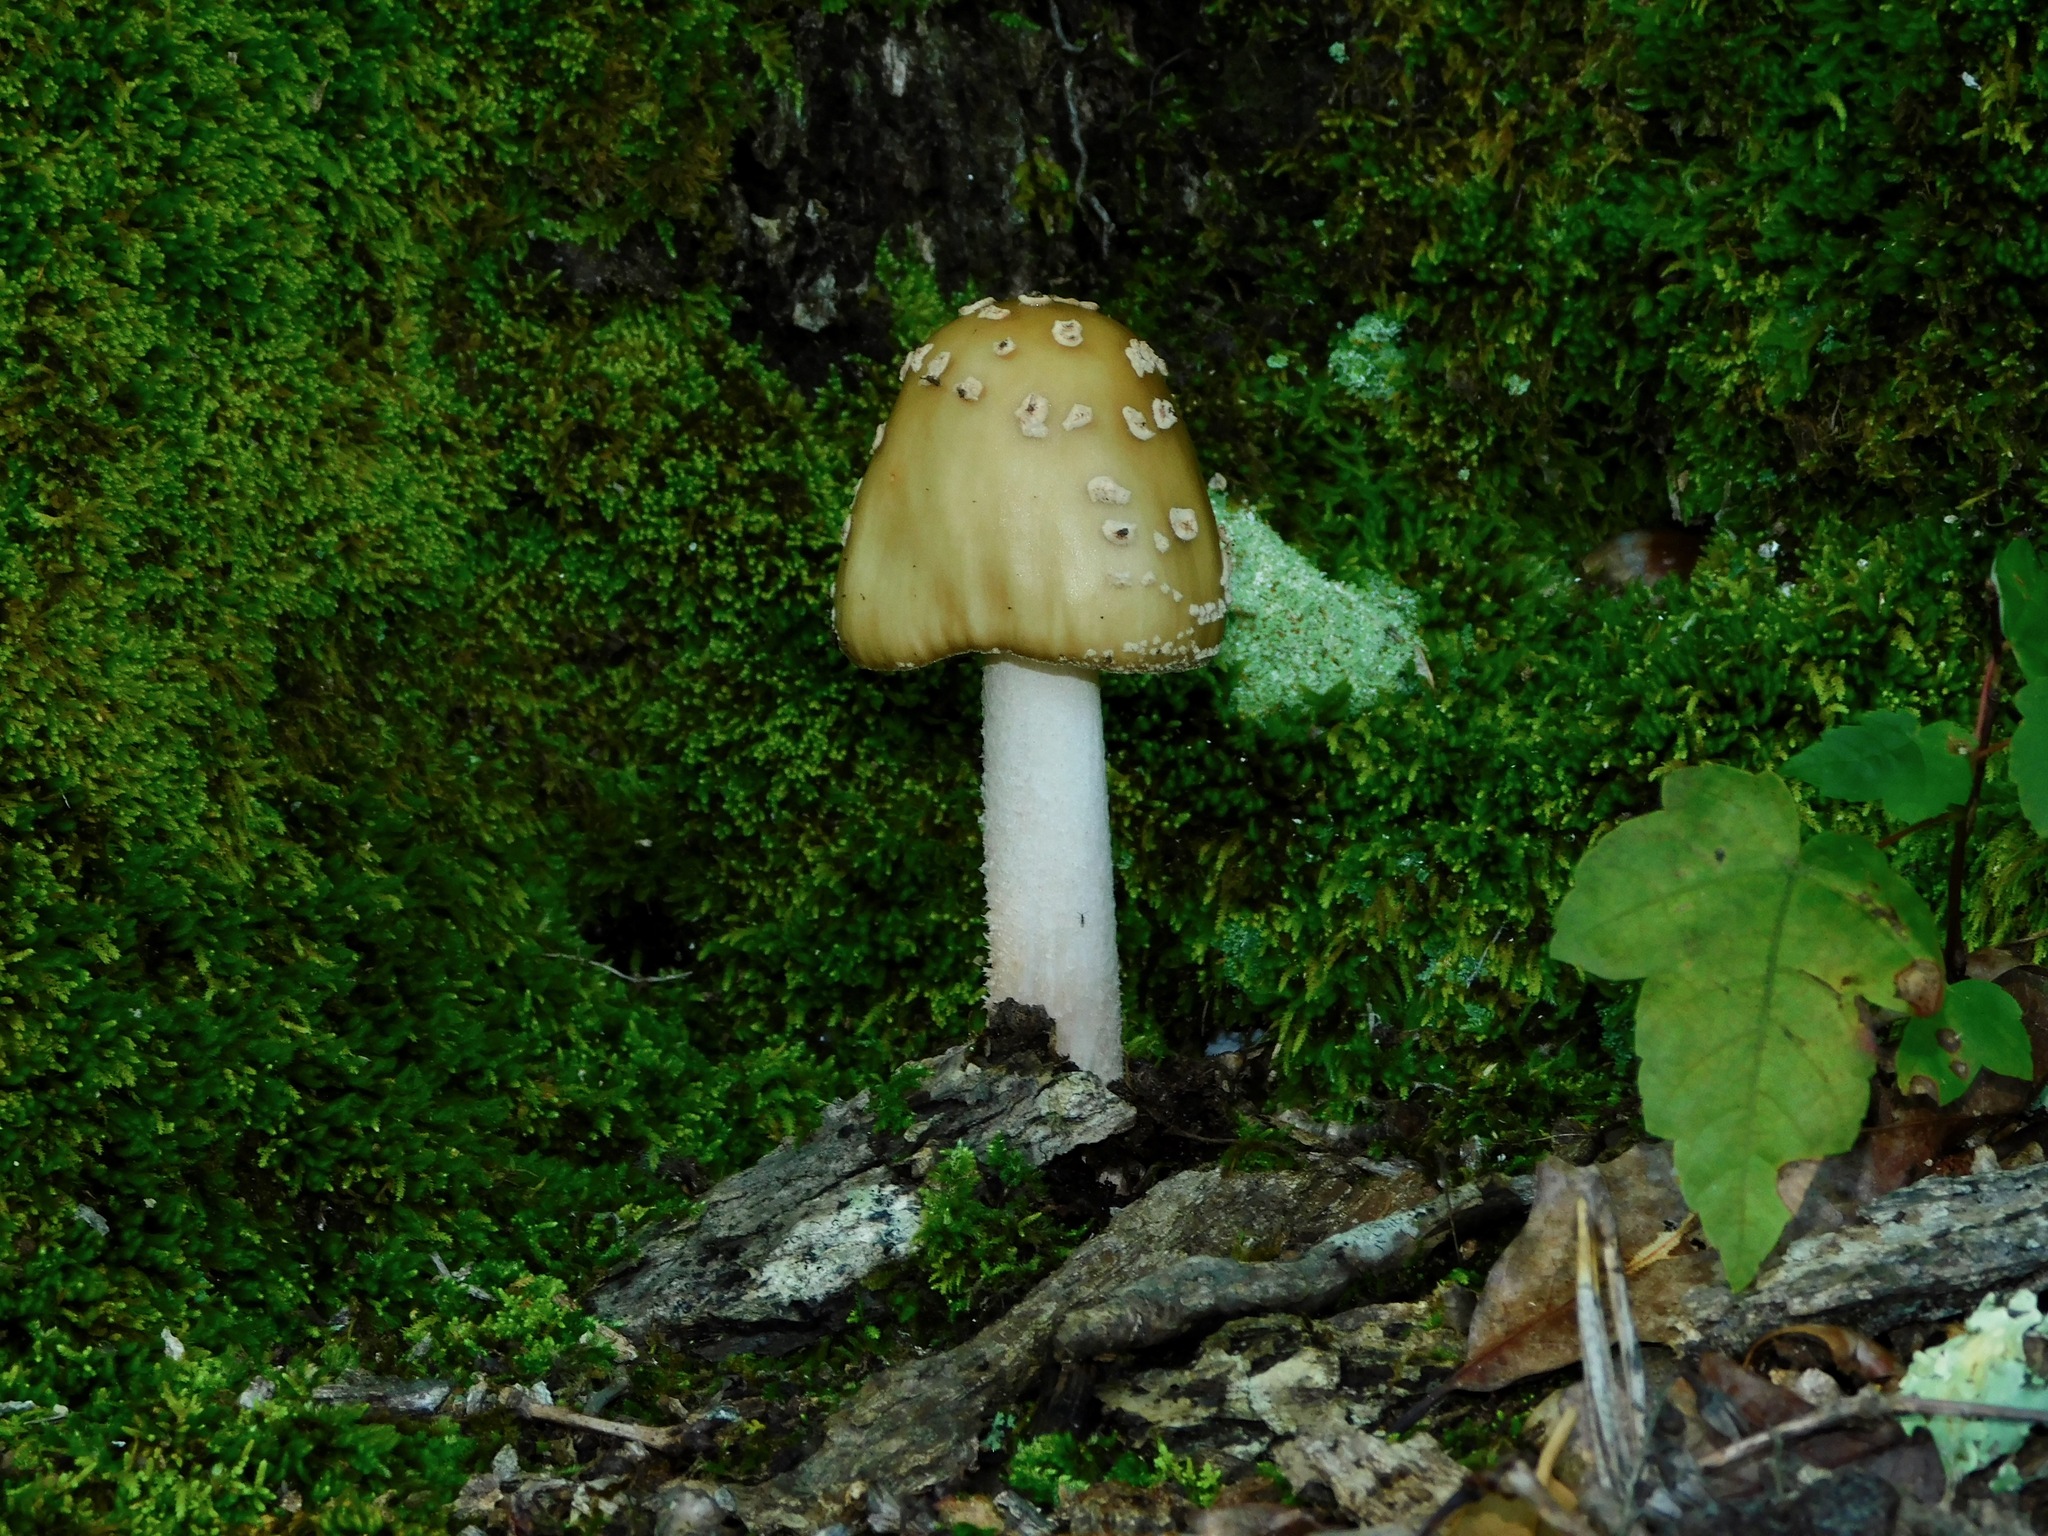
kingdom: Fungi
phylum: Basidiomycota
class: Agaricomycetes
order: Agaricales
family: Amanitaceae
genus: Amanita
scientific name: Amanita brunnescens
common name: Brown american star-footed amanita
